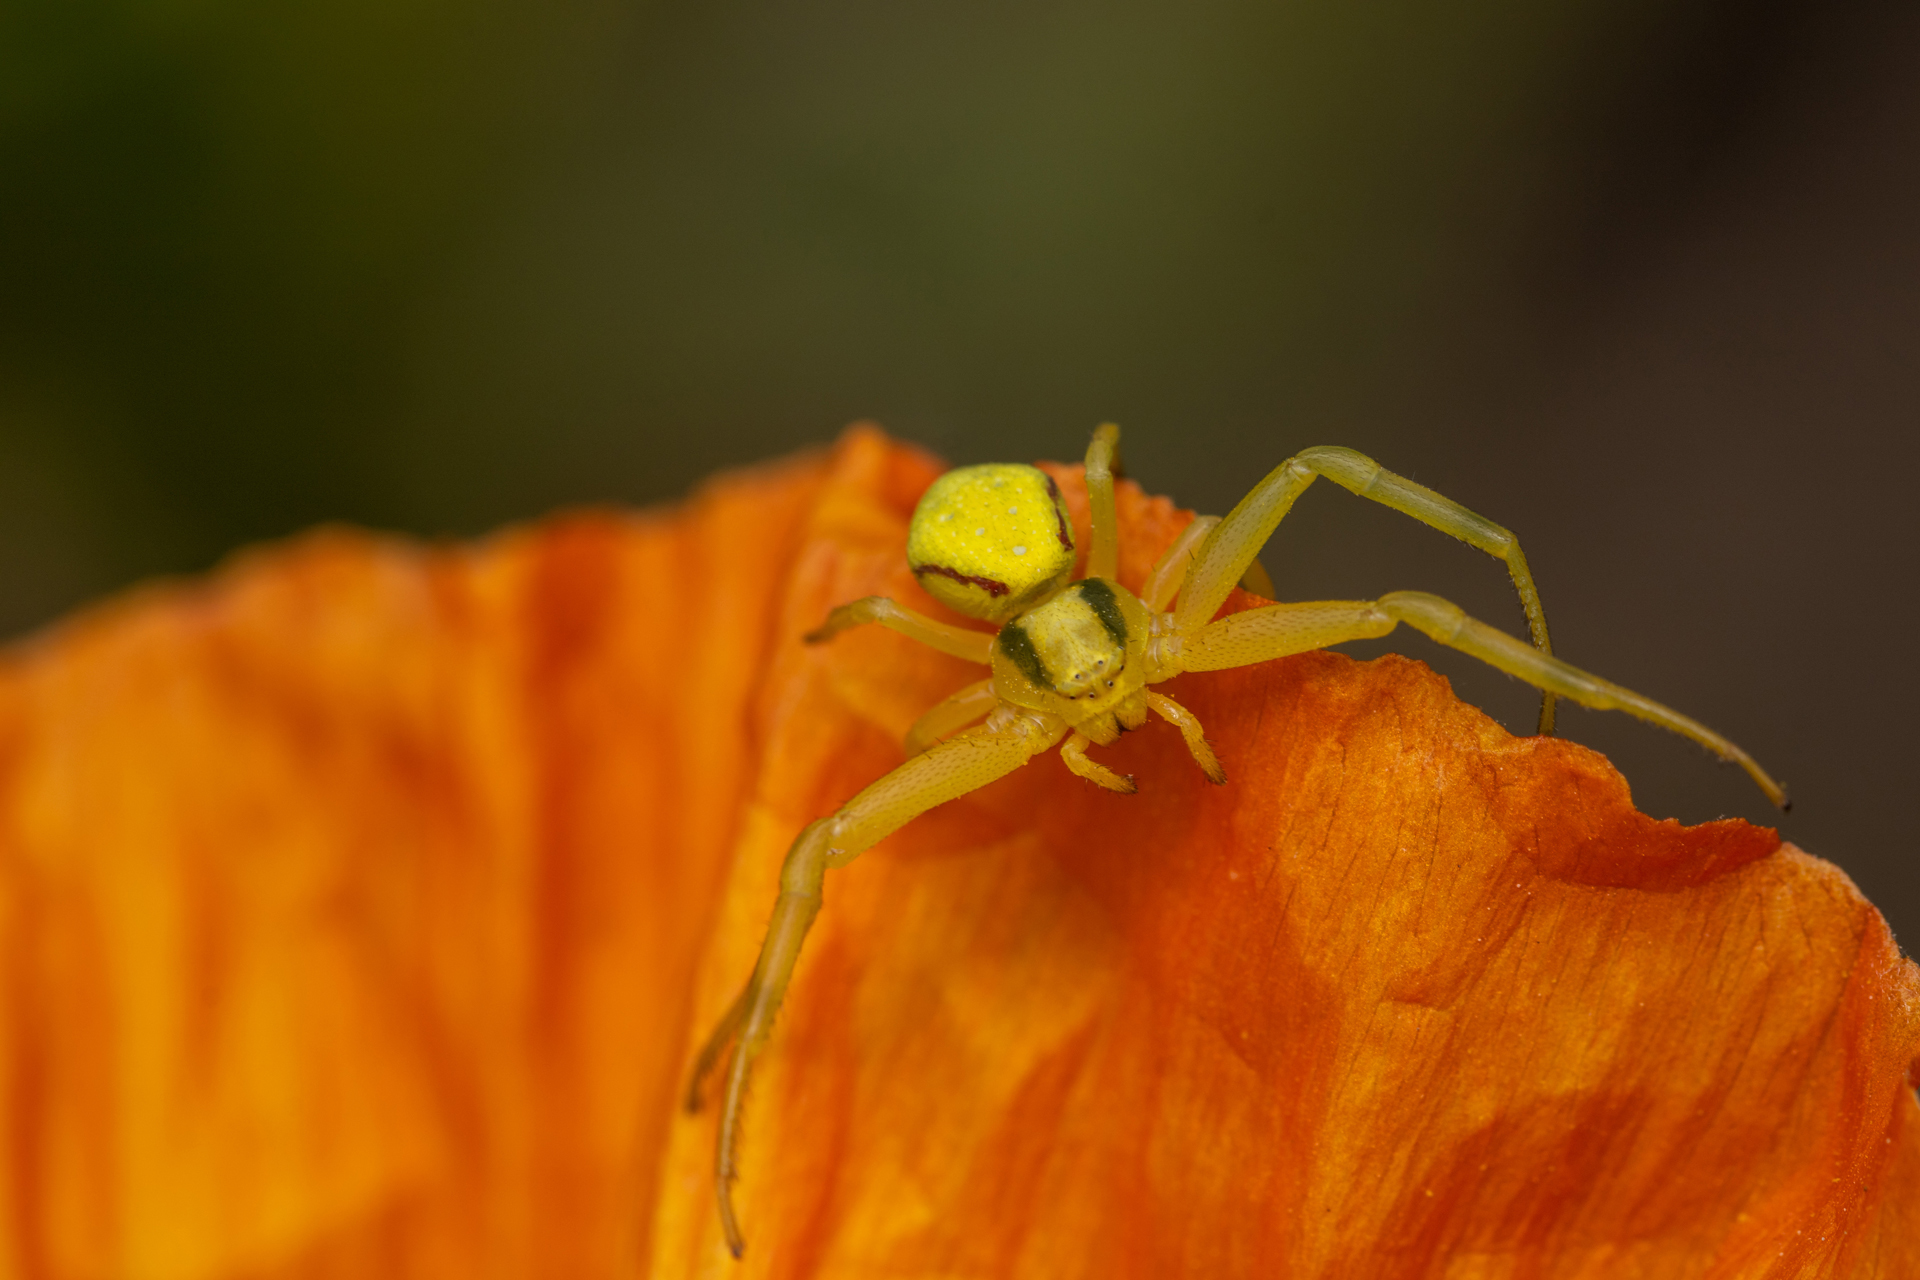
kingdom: Animalia
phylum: Arthropoda
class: Arachnida
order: Araneae
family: Thomisidae
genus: Misumena
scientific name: Misumena vatia
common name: Goldenrod crab spider
